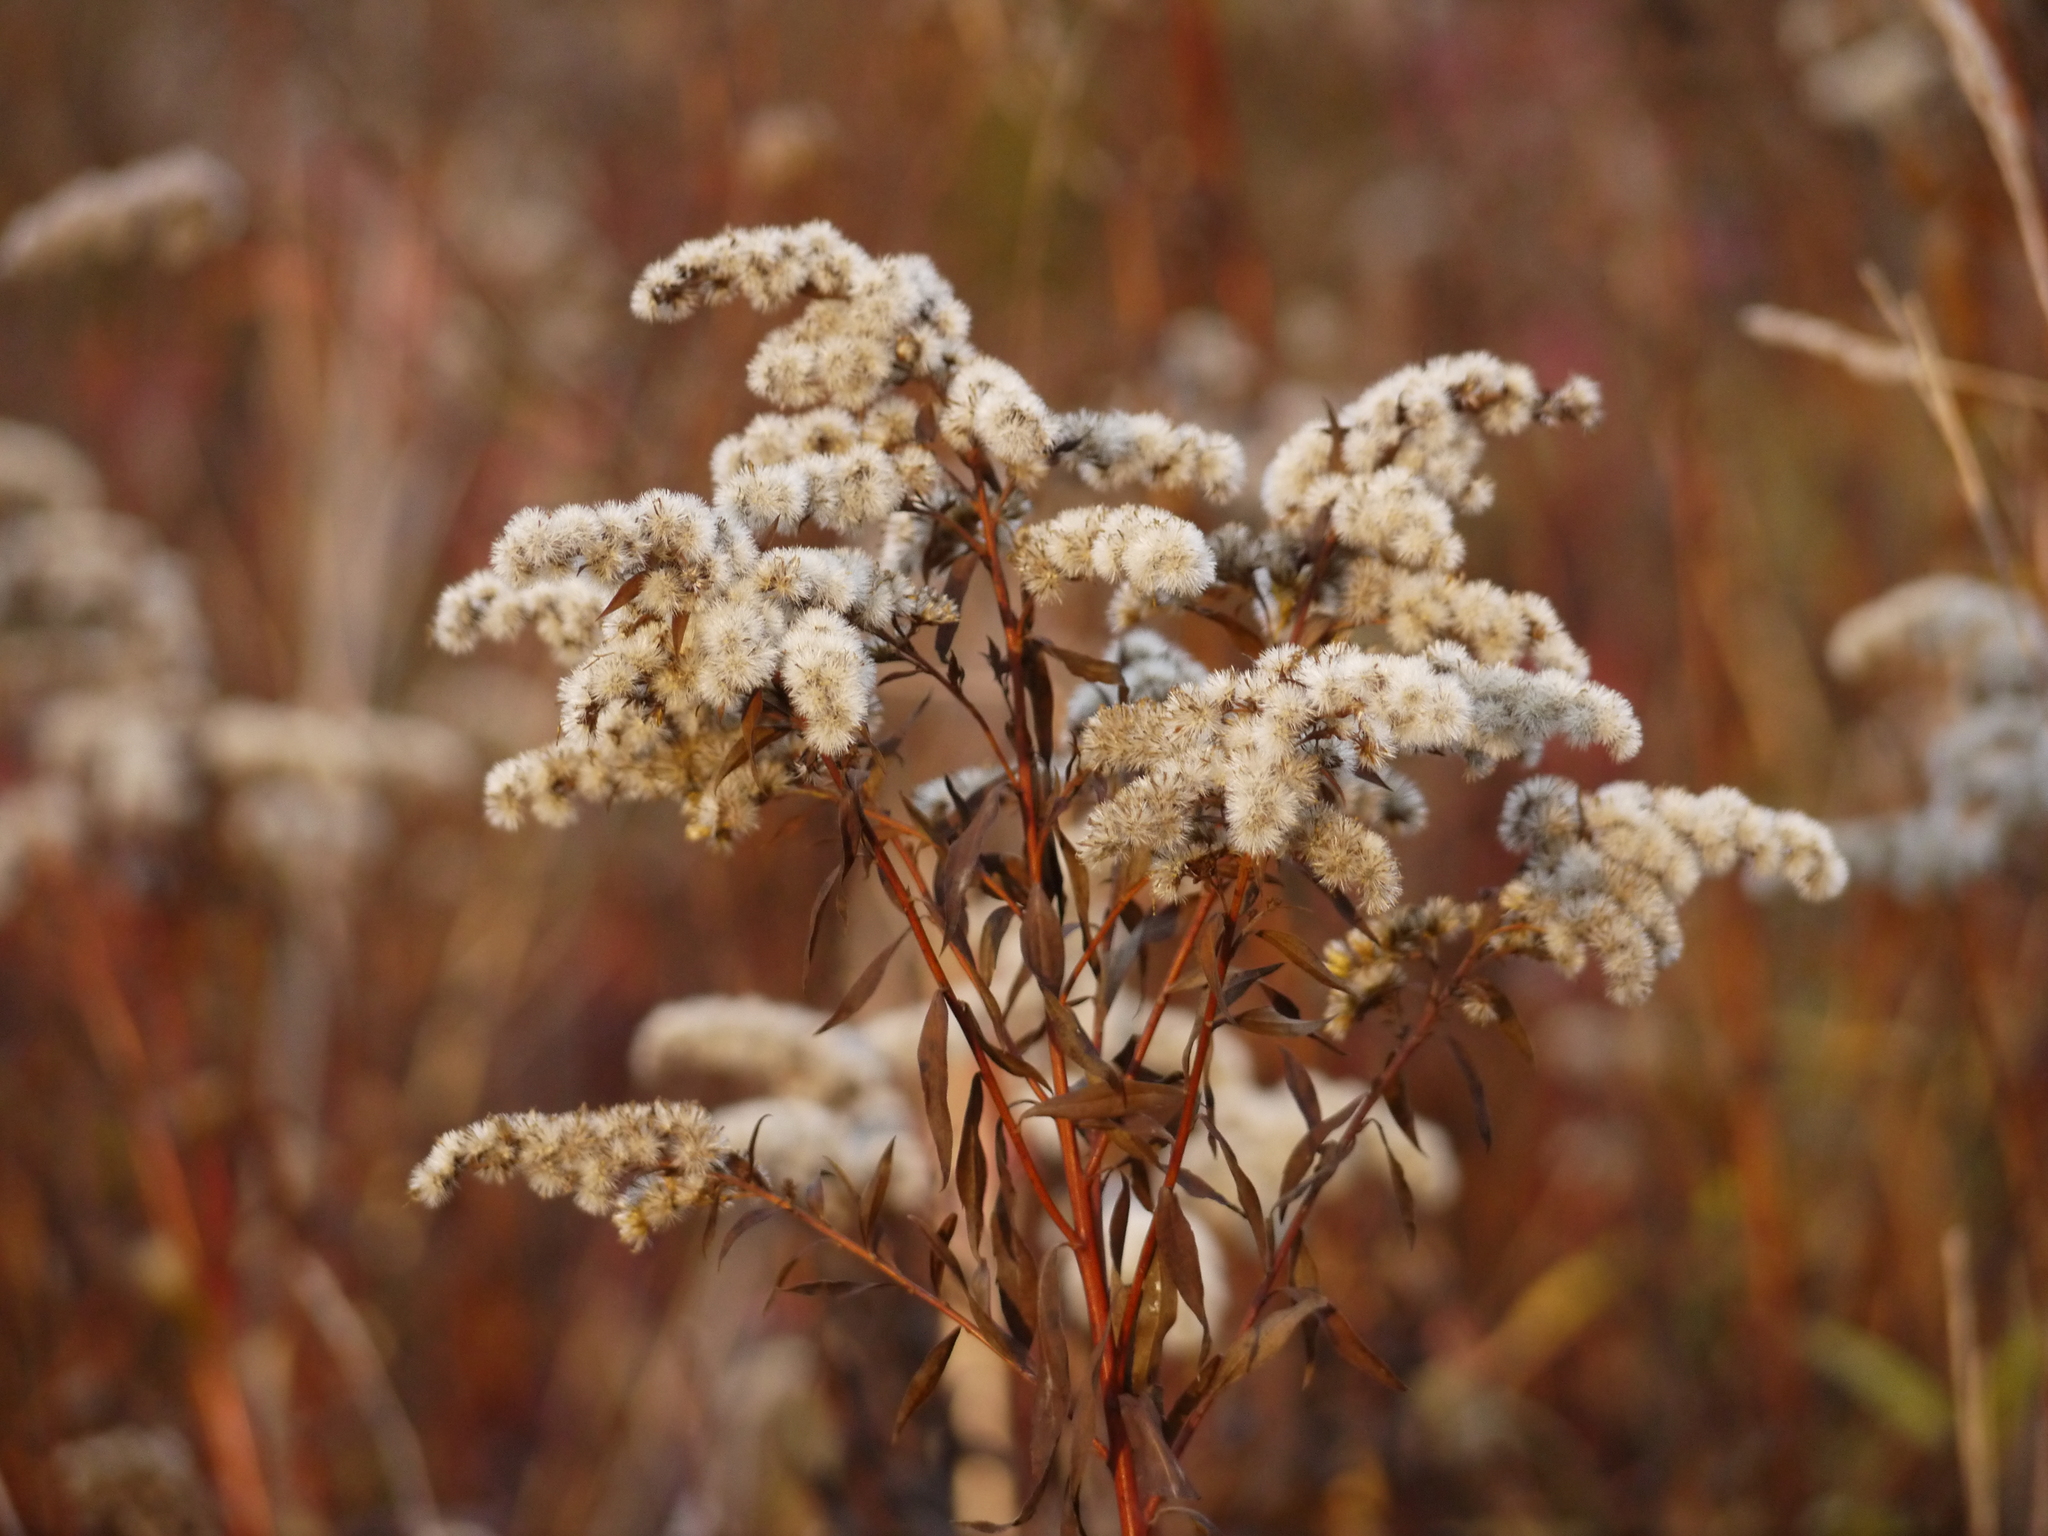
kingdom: Plantae
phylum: Tracheophyta
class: Magnoliopsida
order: Asterales
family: Asteraceae
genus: Solidago
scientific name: Solidago gigantea
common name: Giant goldenrod
